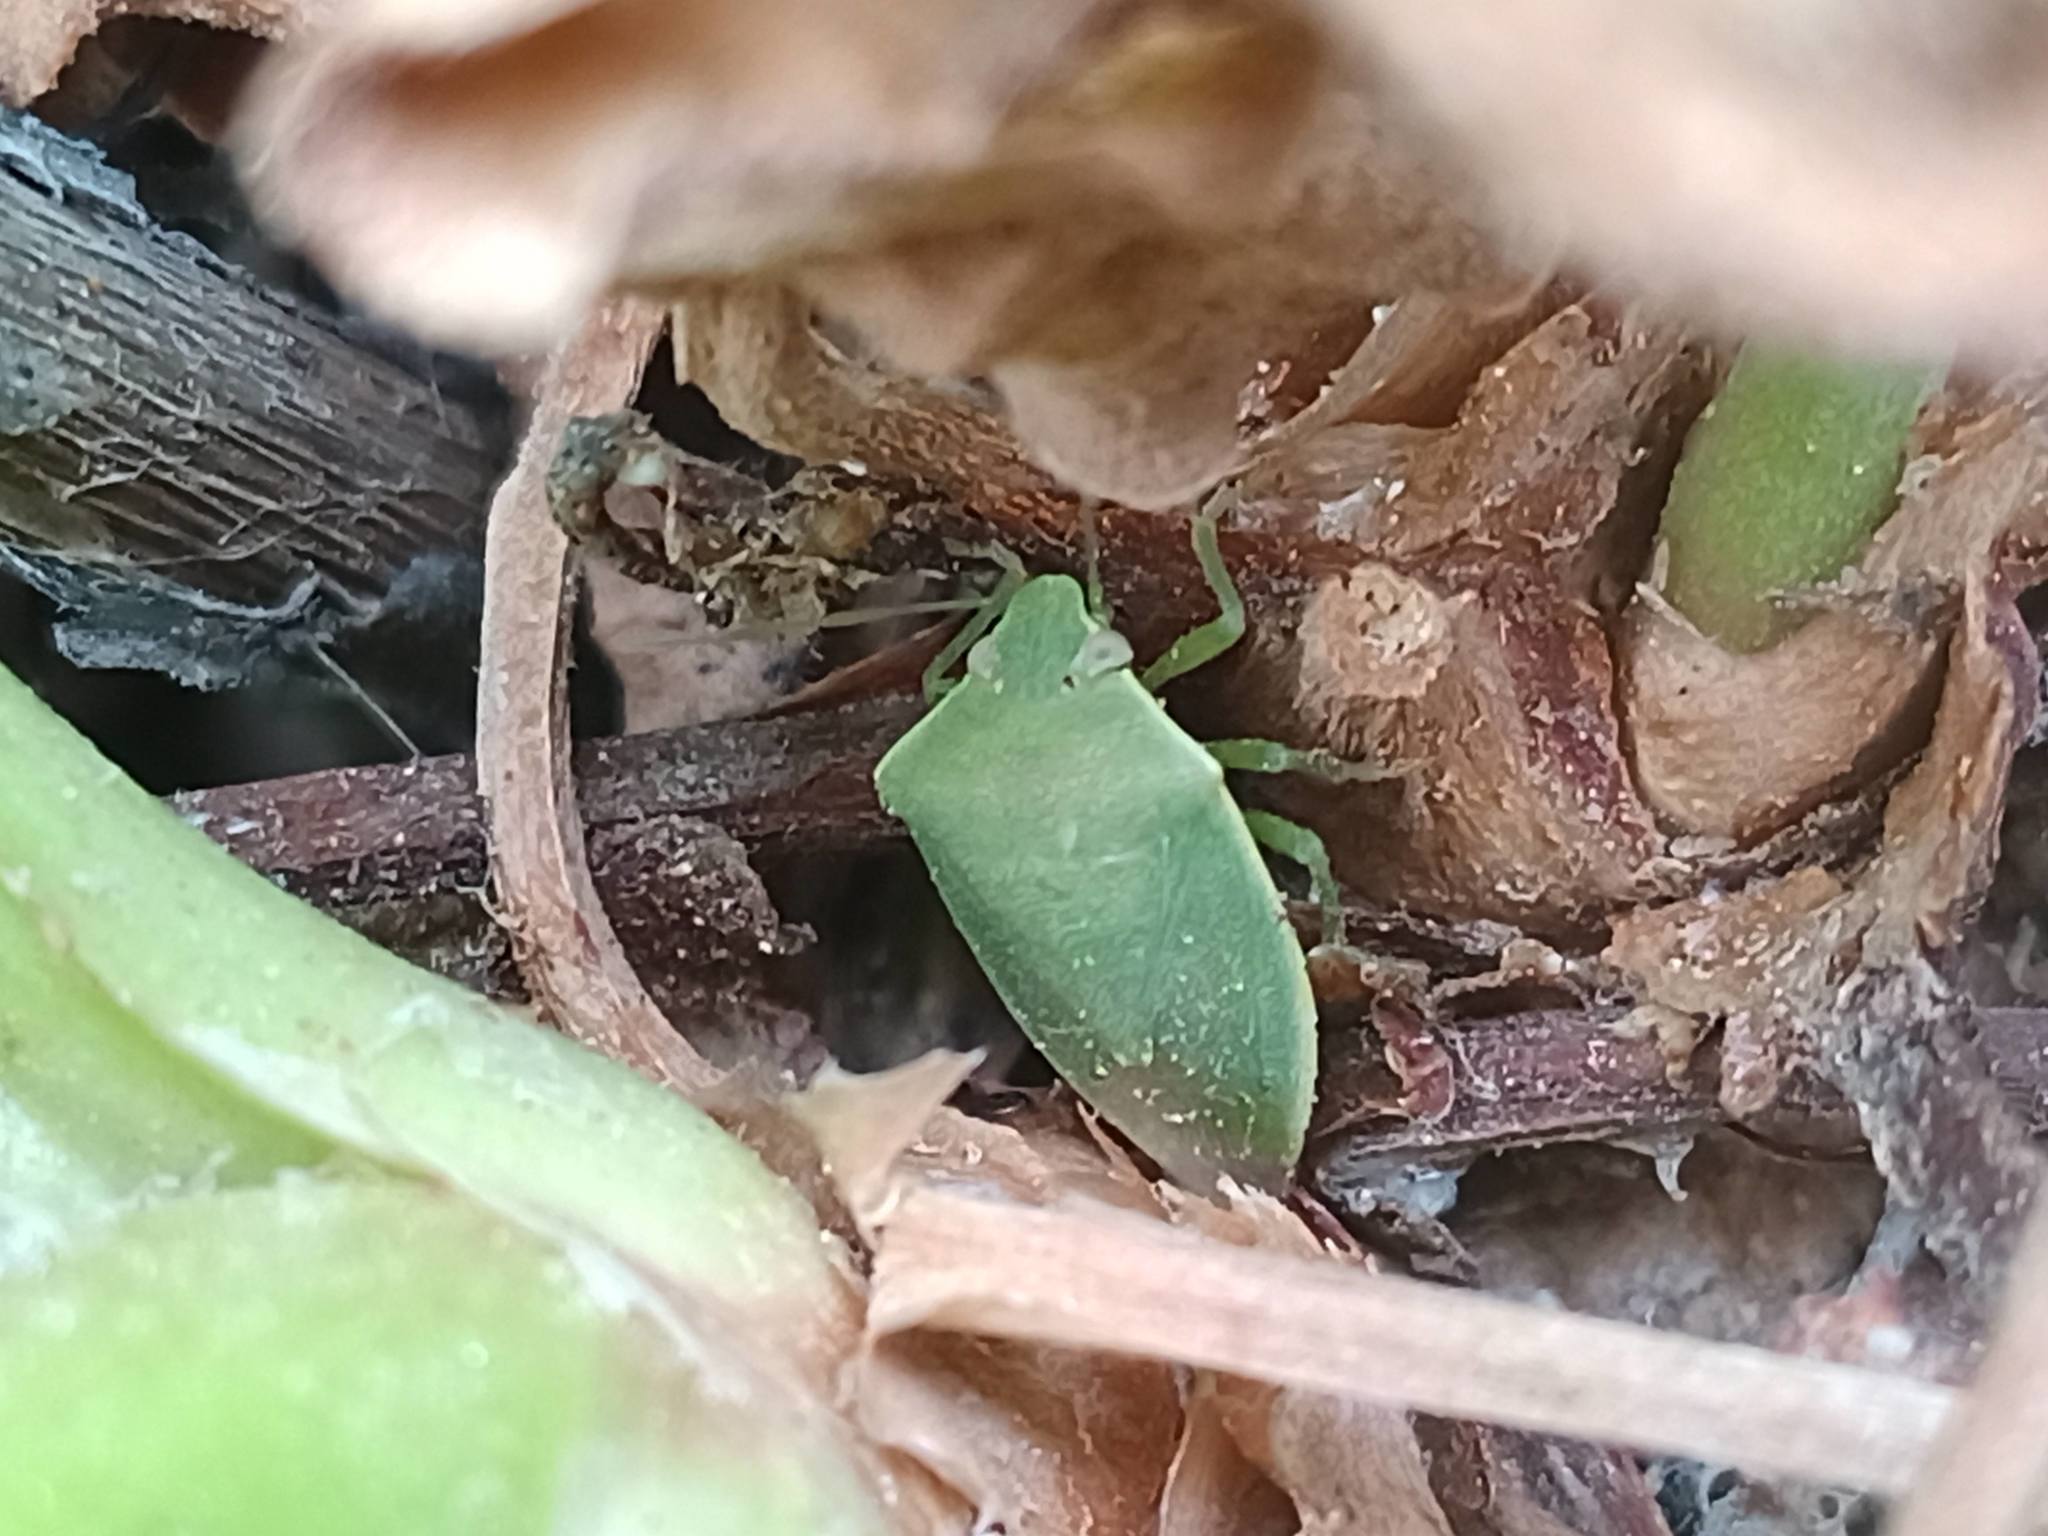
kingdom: Animalia
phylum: Arthropoda
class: Insecta
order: Hemiptera
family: Pentatomidae
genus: Acrosternum
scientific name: Acrosternum millierei
